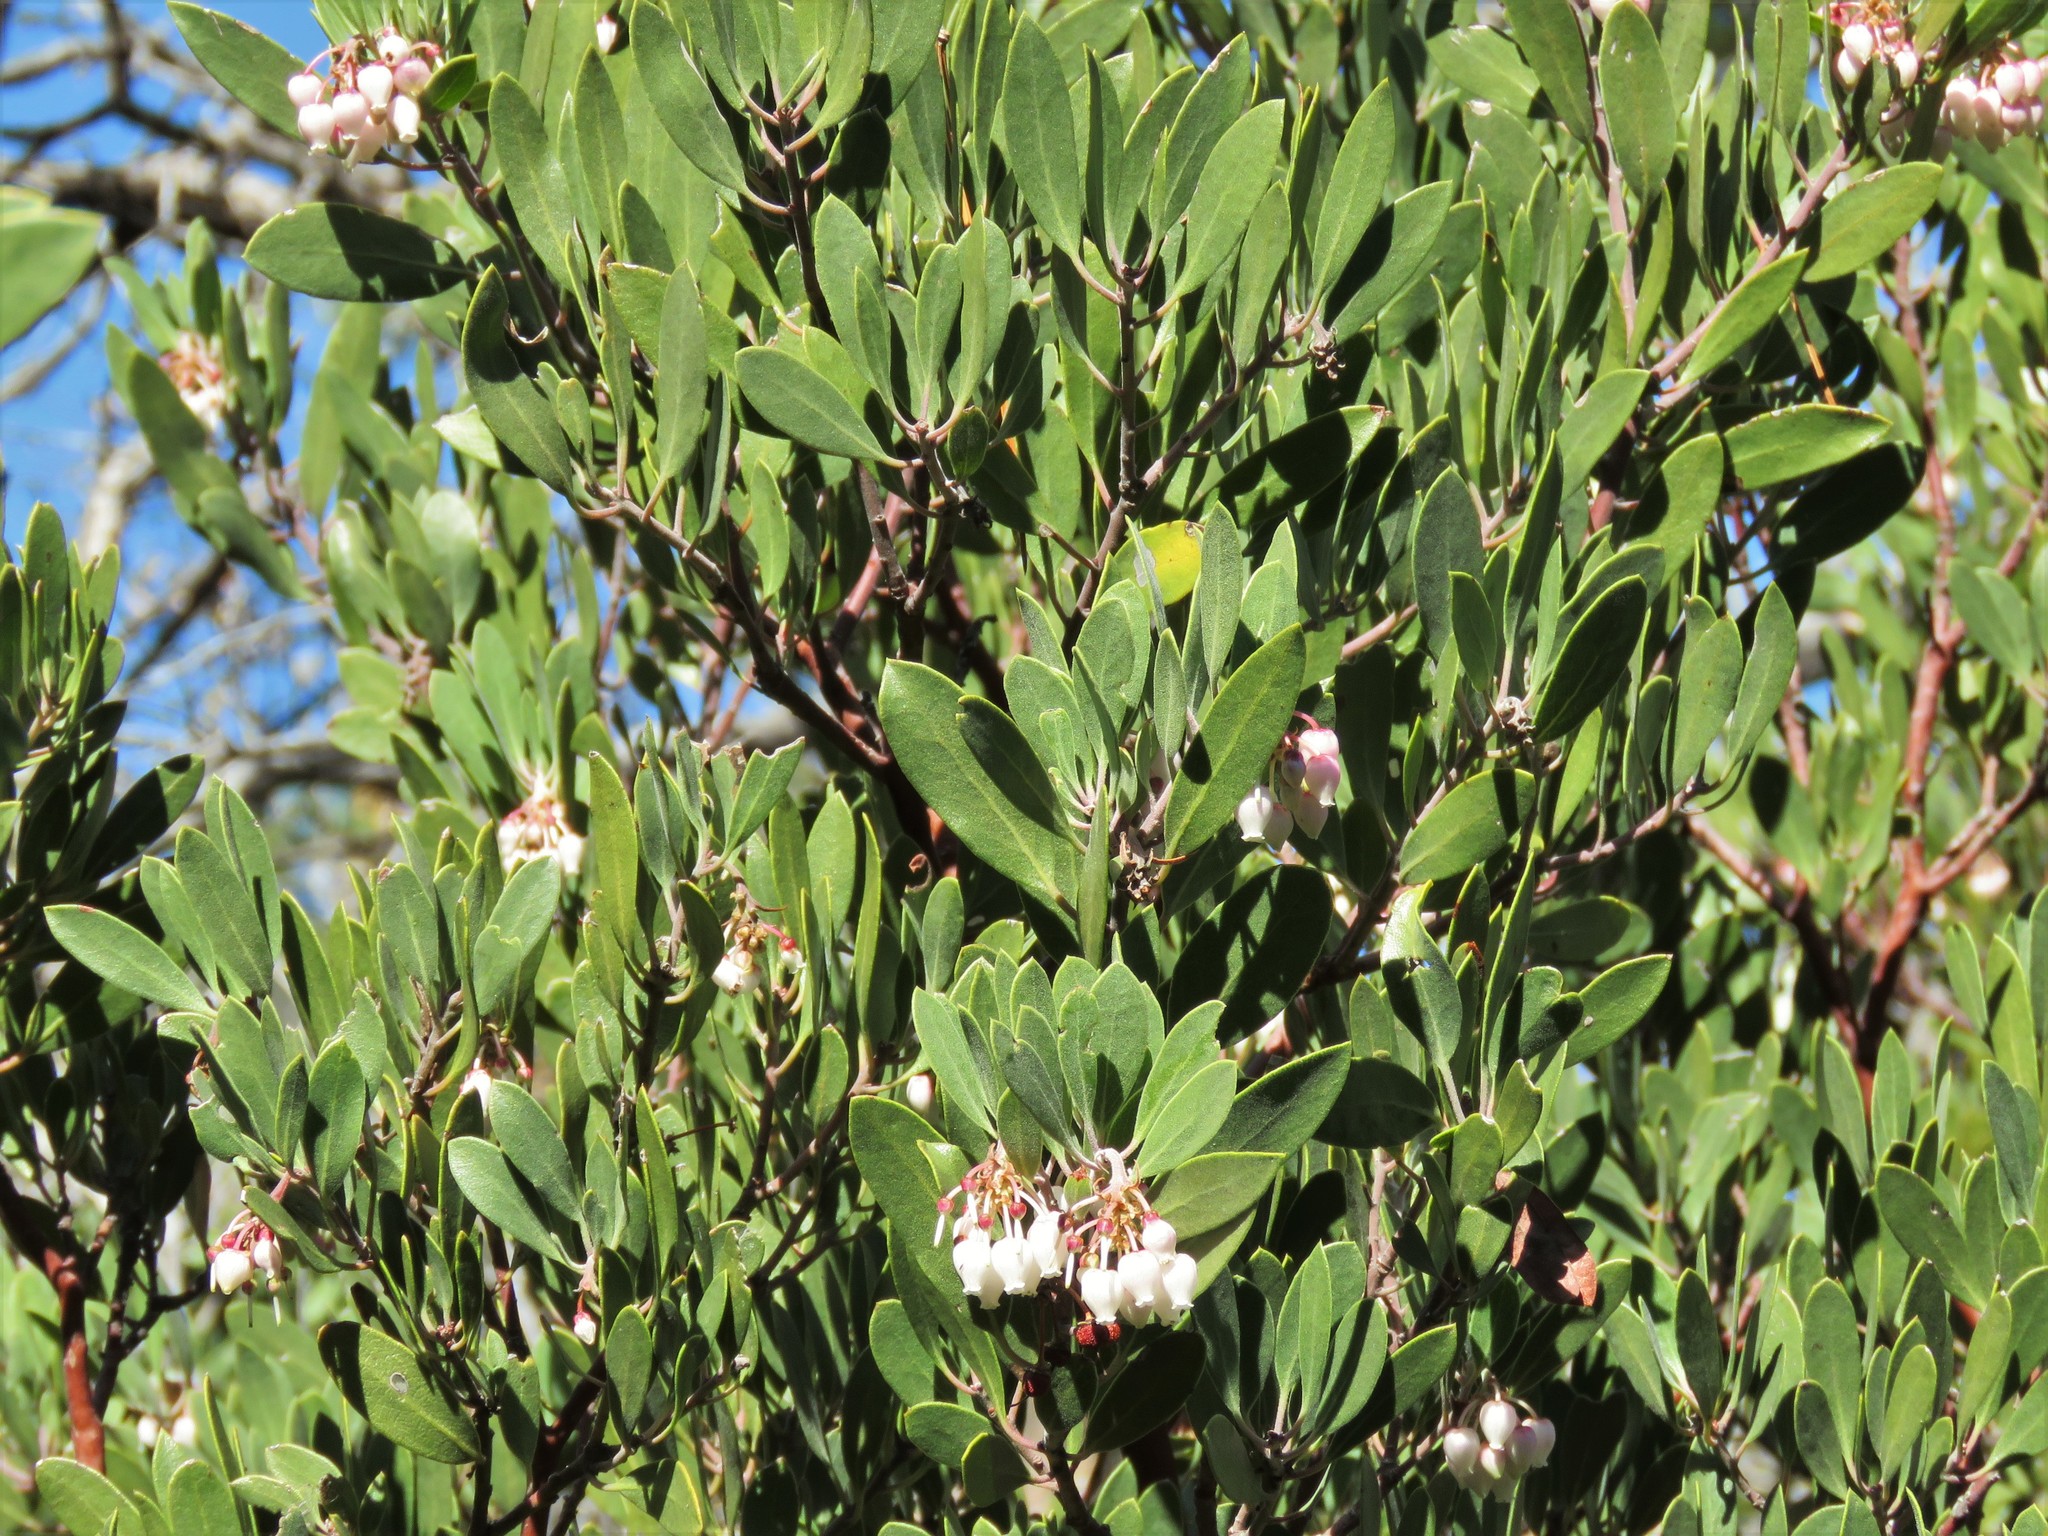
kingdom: Plantae
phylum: Tracheophyta
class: Magnoliopsida
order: Ericales
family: Ericaceae
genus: Arctostaphylos
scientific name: Arctostaphylos pungens
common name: Mexican manzanita
